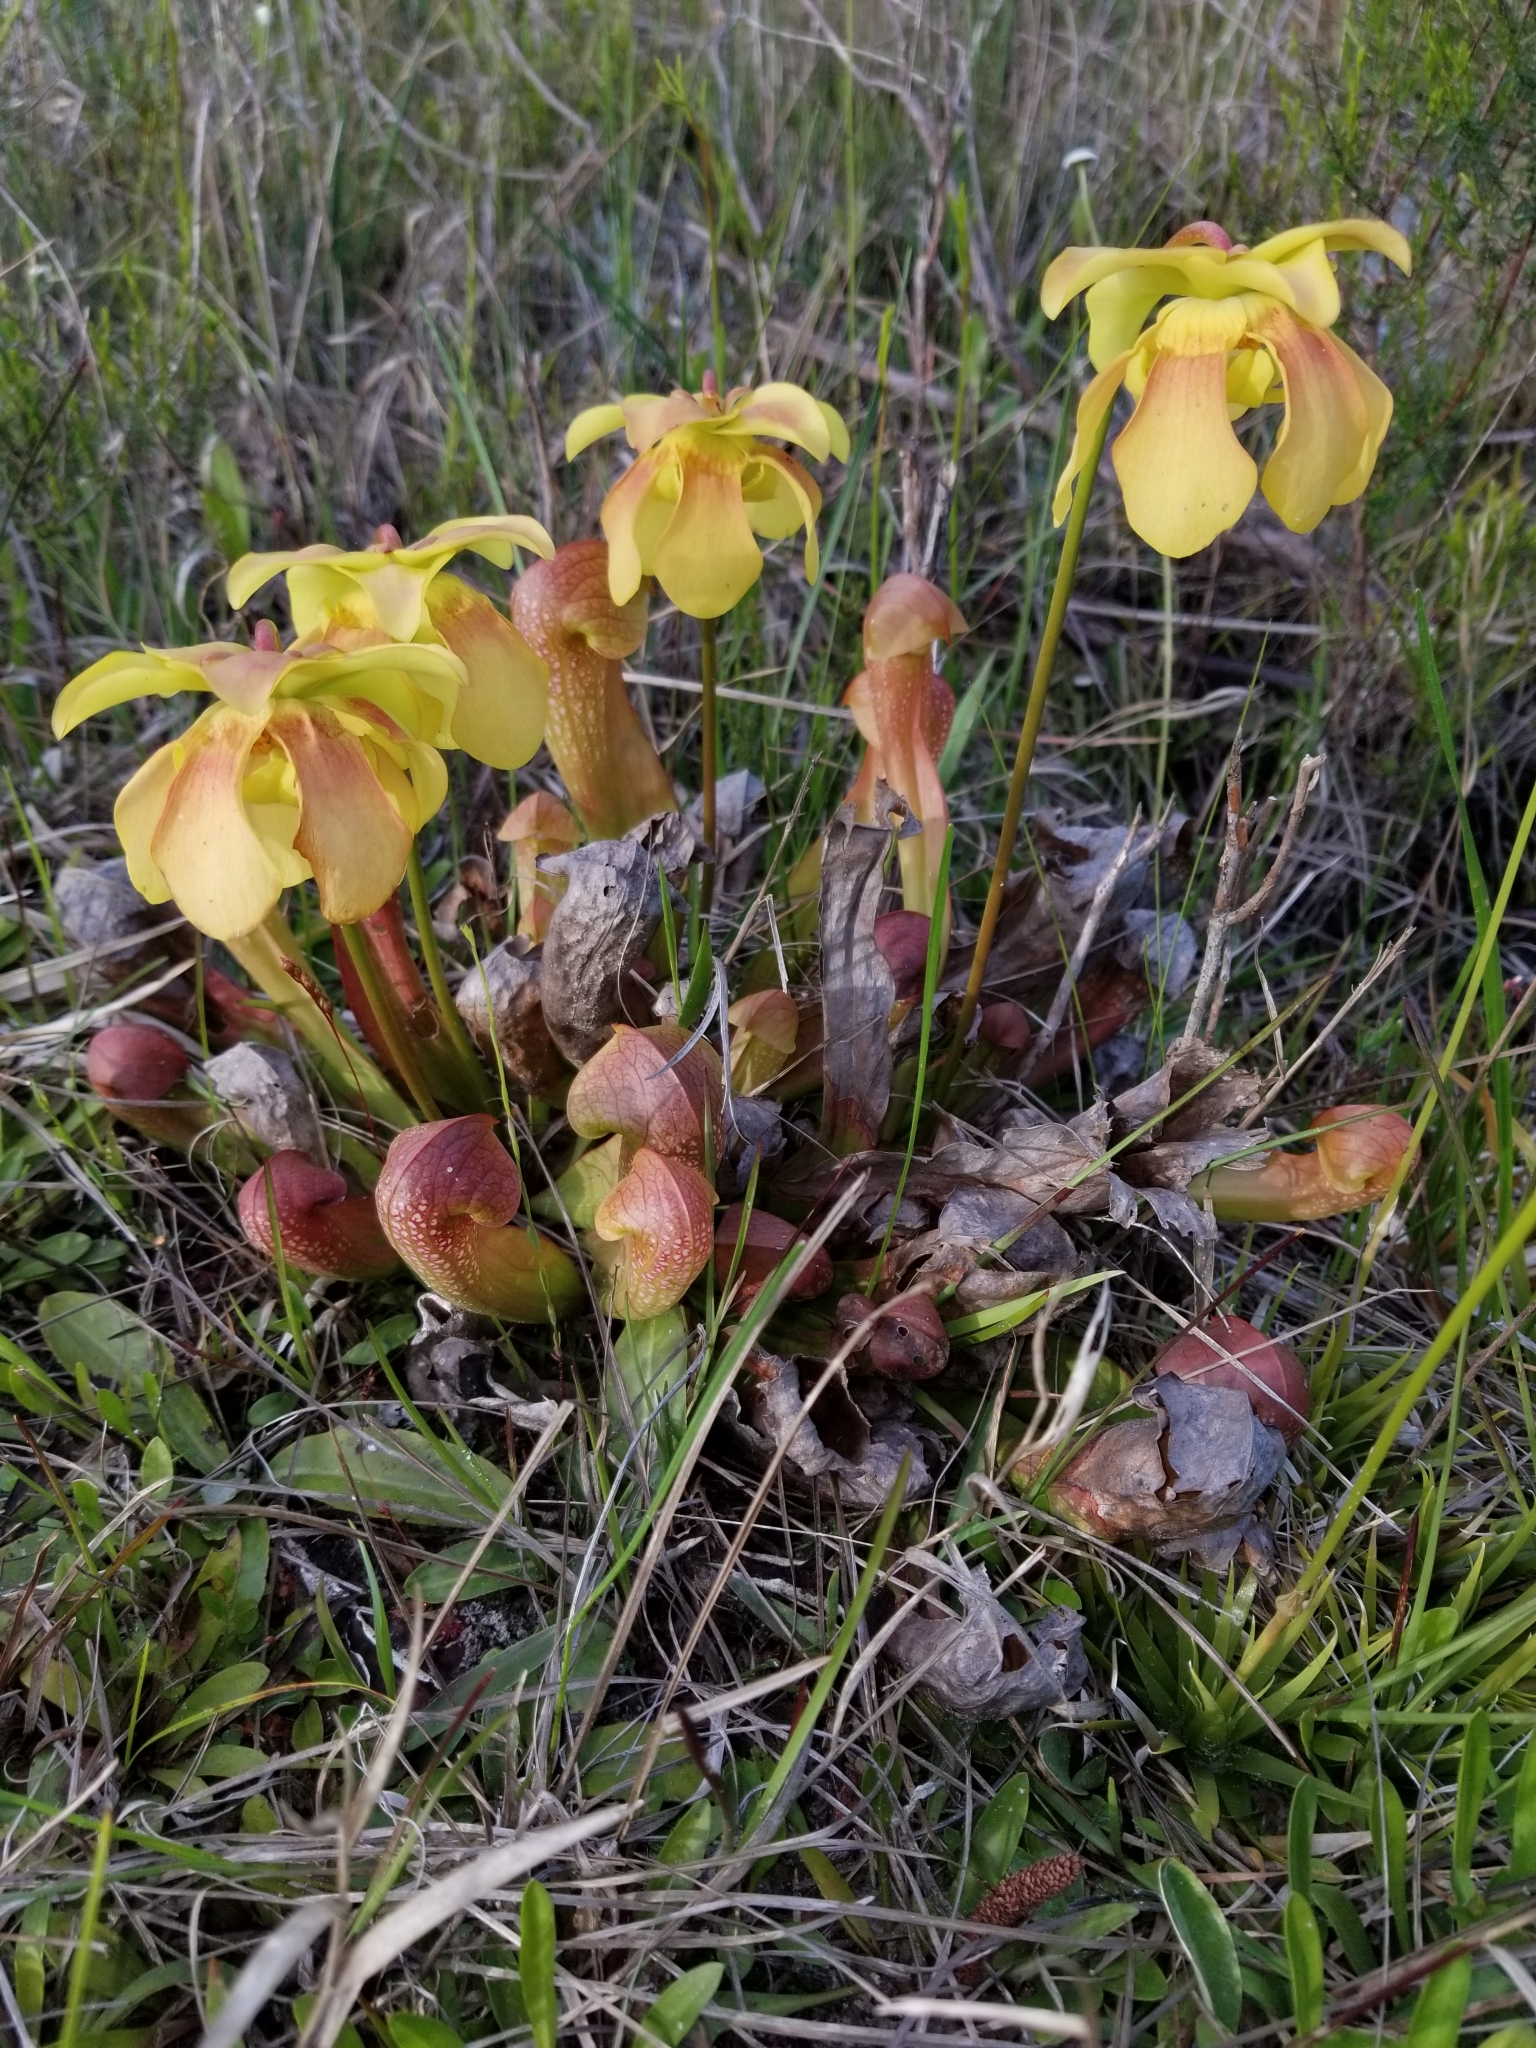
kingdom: Plantae
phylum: Tracheophyta
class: Magnoliopsida
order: Ericales
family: Sarraceniaceae
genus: Sarracenia
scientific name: Sarracenia formosa
